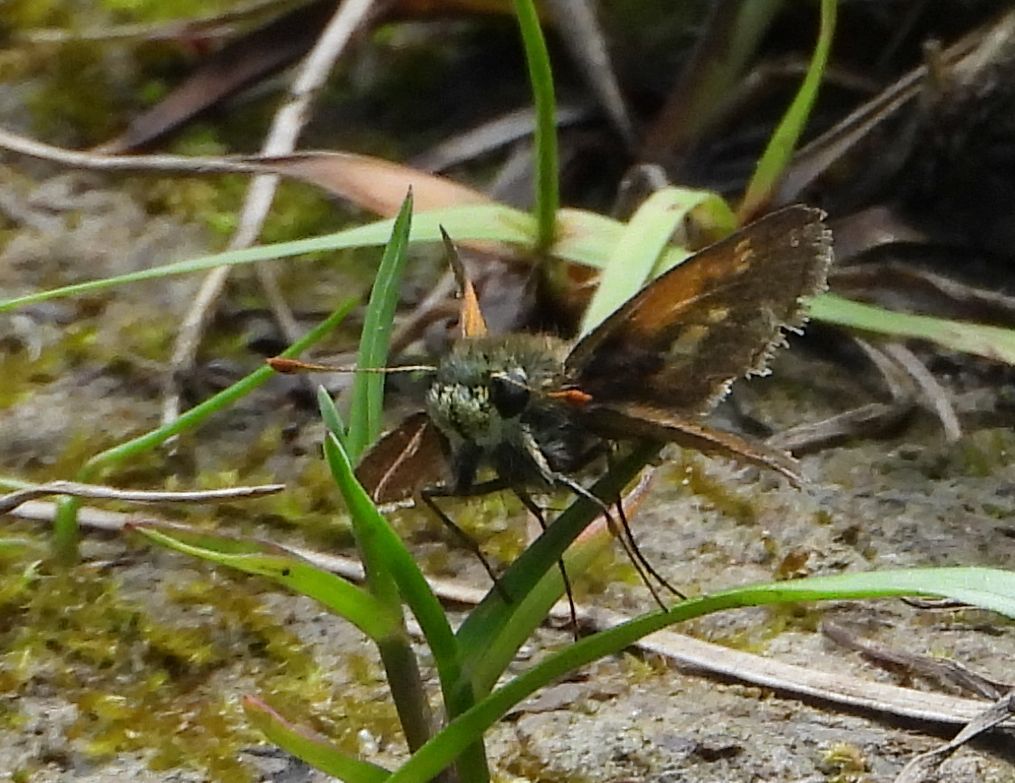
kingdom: Animalia
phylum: Arthropoda
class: Insecta
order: Lepidoptera
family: Hesperiidae
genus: Polites
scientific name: Polites themistocles
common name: Tawny-edged skipper
